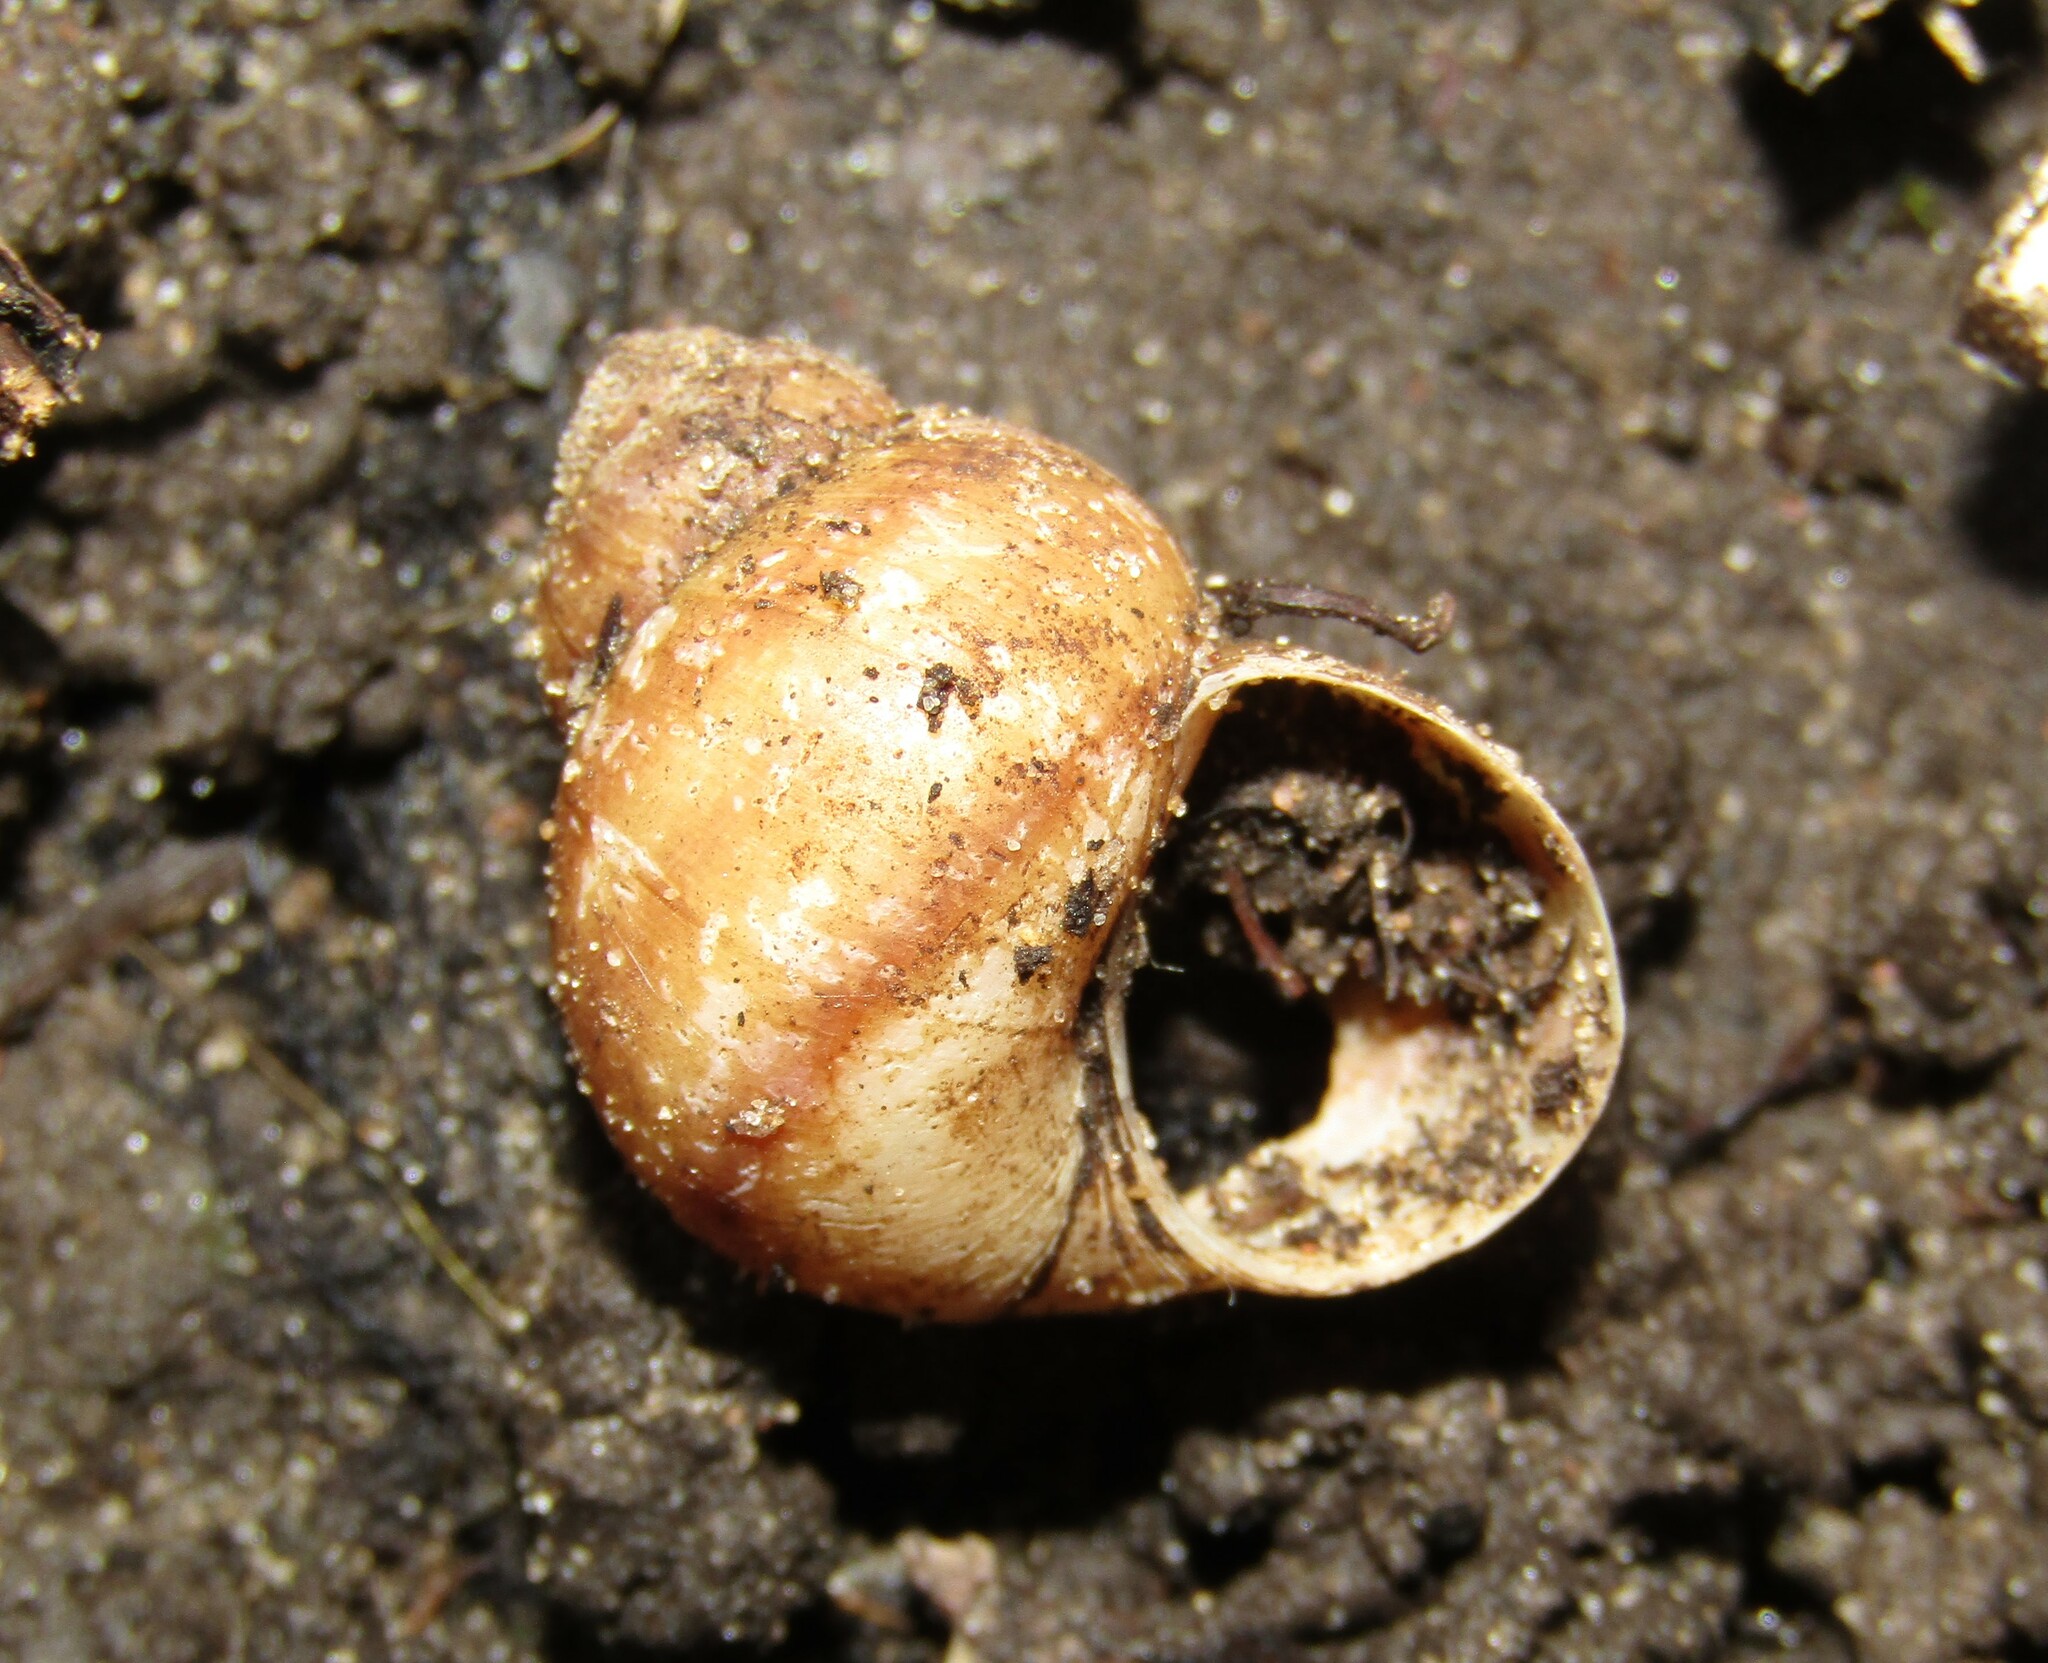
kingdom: Animalia
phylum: Mollusca
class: Gastropoda
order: Architaenioglossa
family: Viviparidae
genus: Viviparus
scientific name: Viviparus viviparus
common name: River snail
